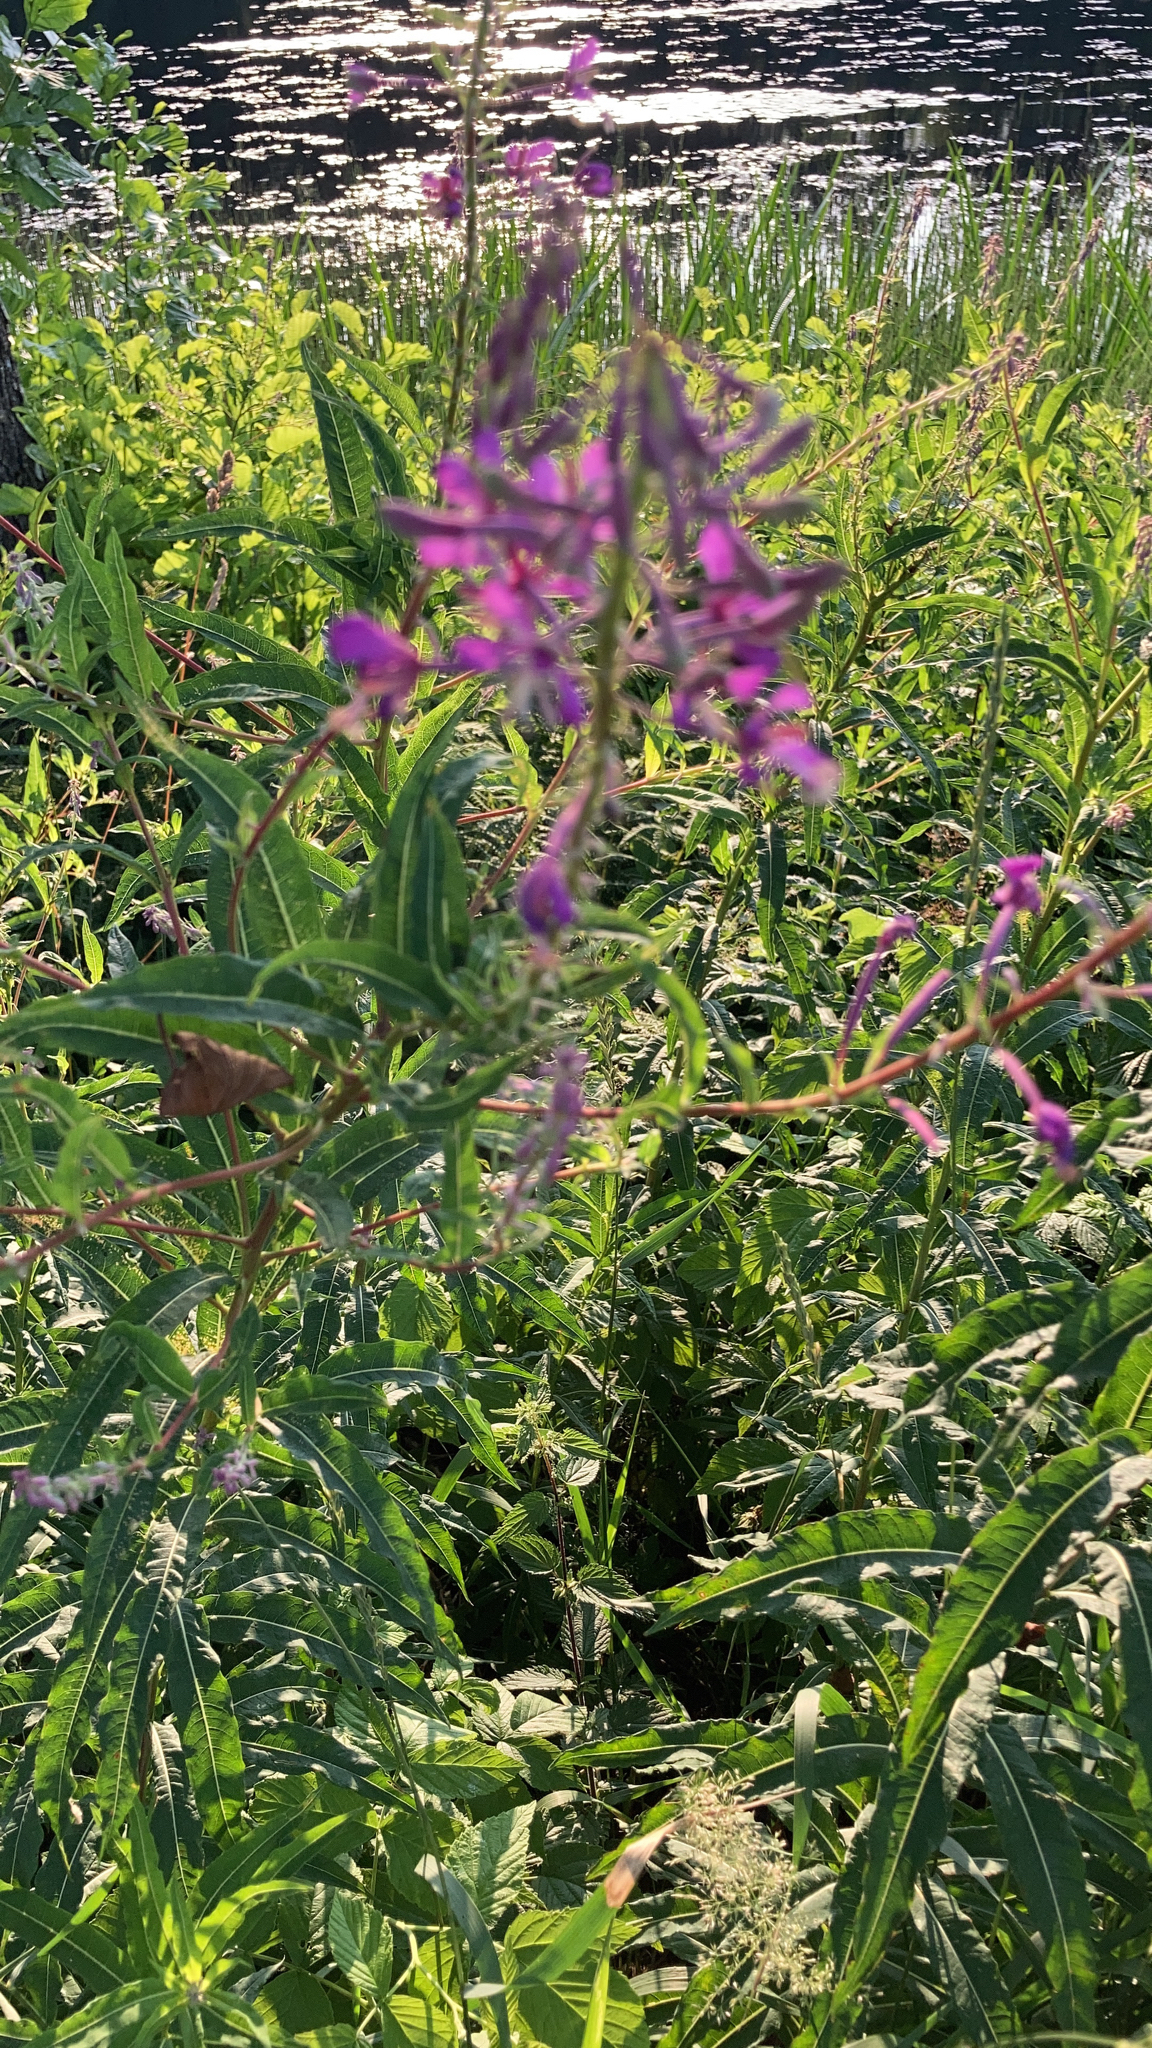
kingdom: Plantae
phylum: Tracheophyta
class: Magnoliopsida
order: Myrtales
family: Onagraceae
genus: Chamaenerion
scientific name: Chamaenerion angustifolium
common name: Fireweed
